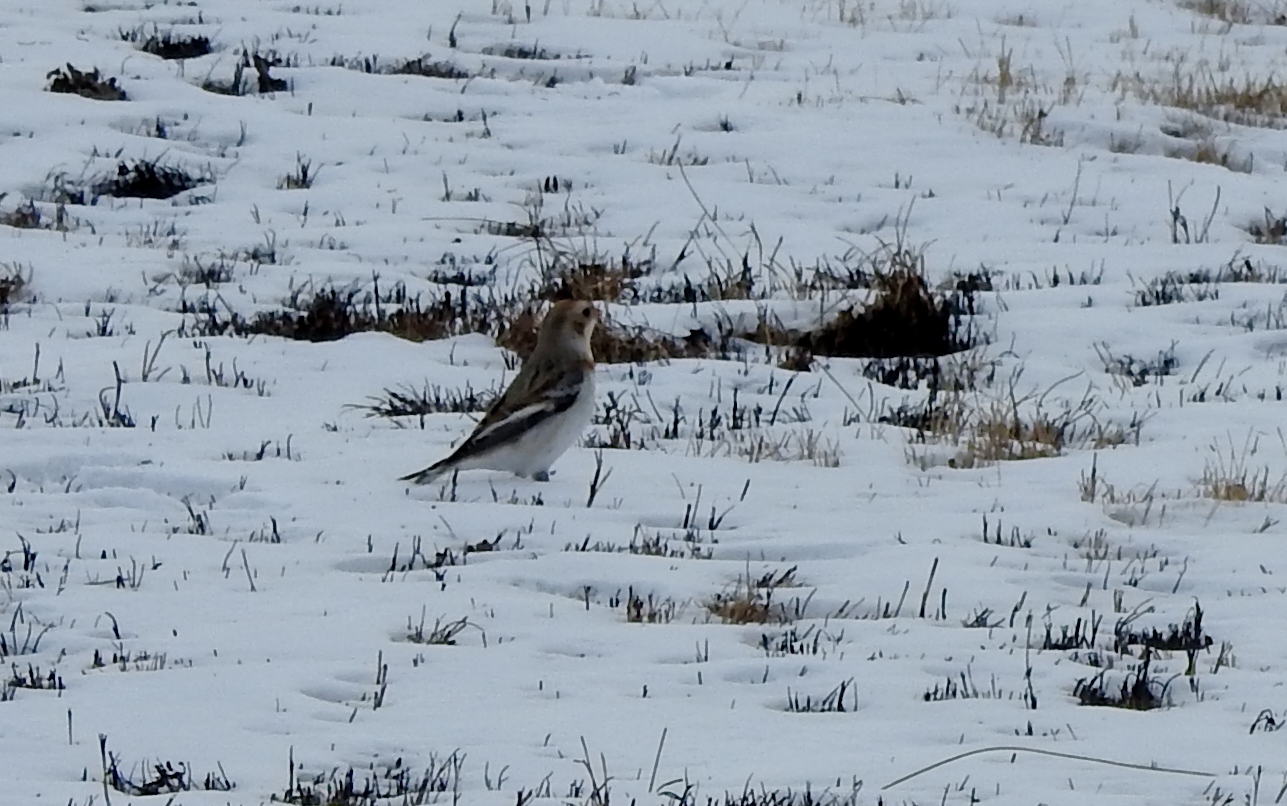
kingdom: Animalia
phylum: Chordata
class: Aves
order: Passeriformes
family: Calcariidae
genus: Plectrophenax
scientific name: Plectrophenax nivalis
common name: Snow bunting
